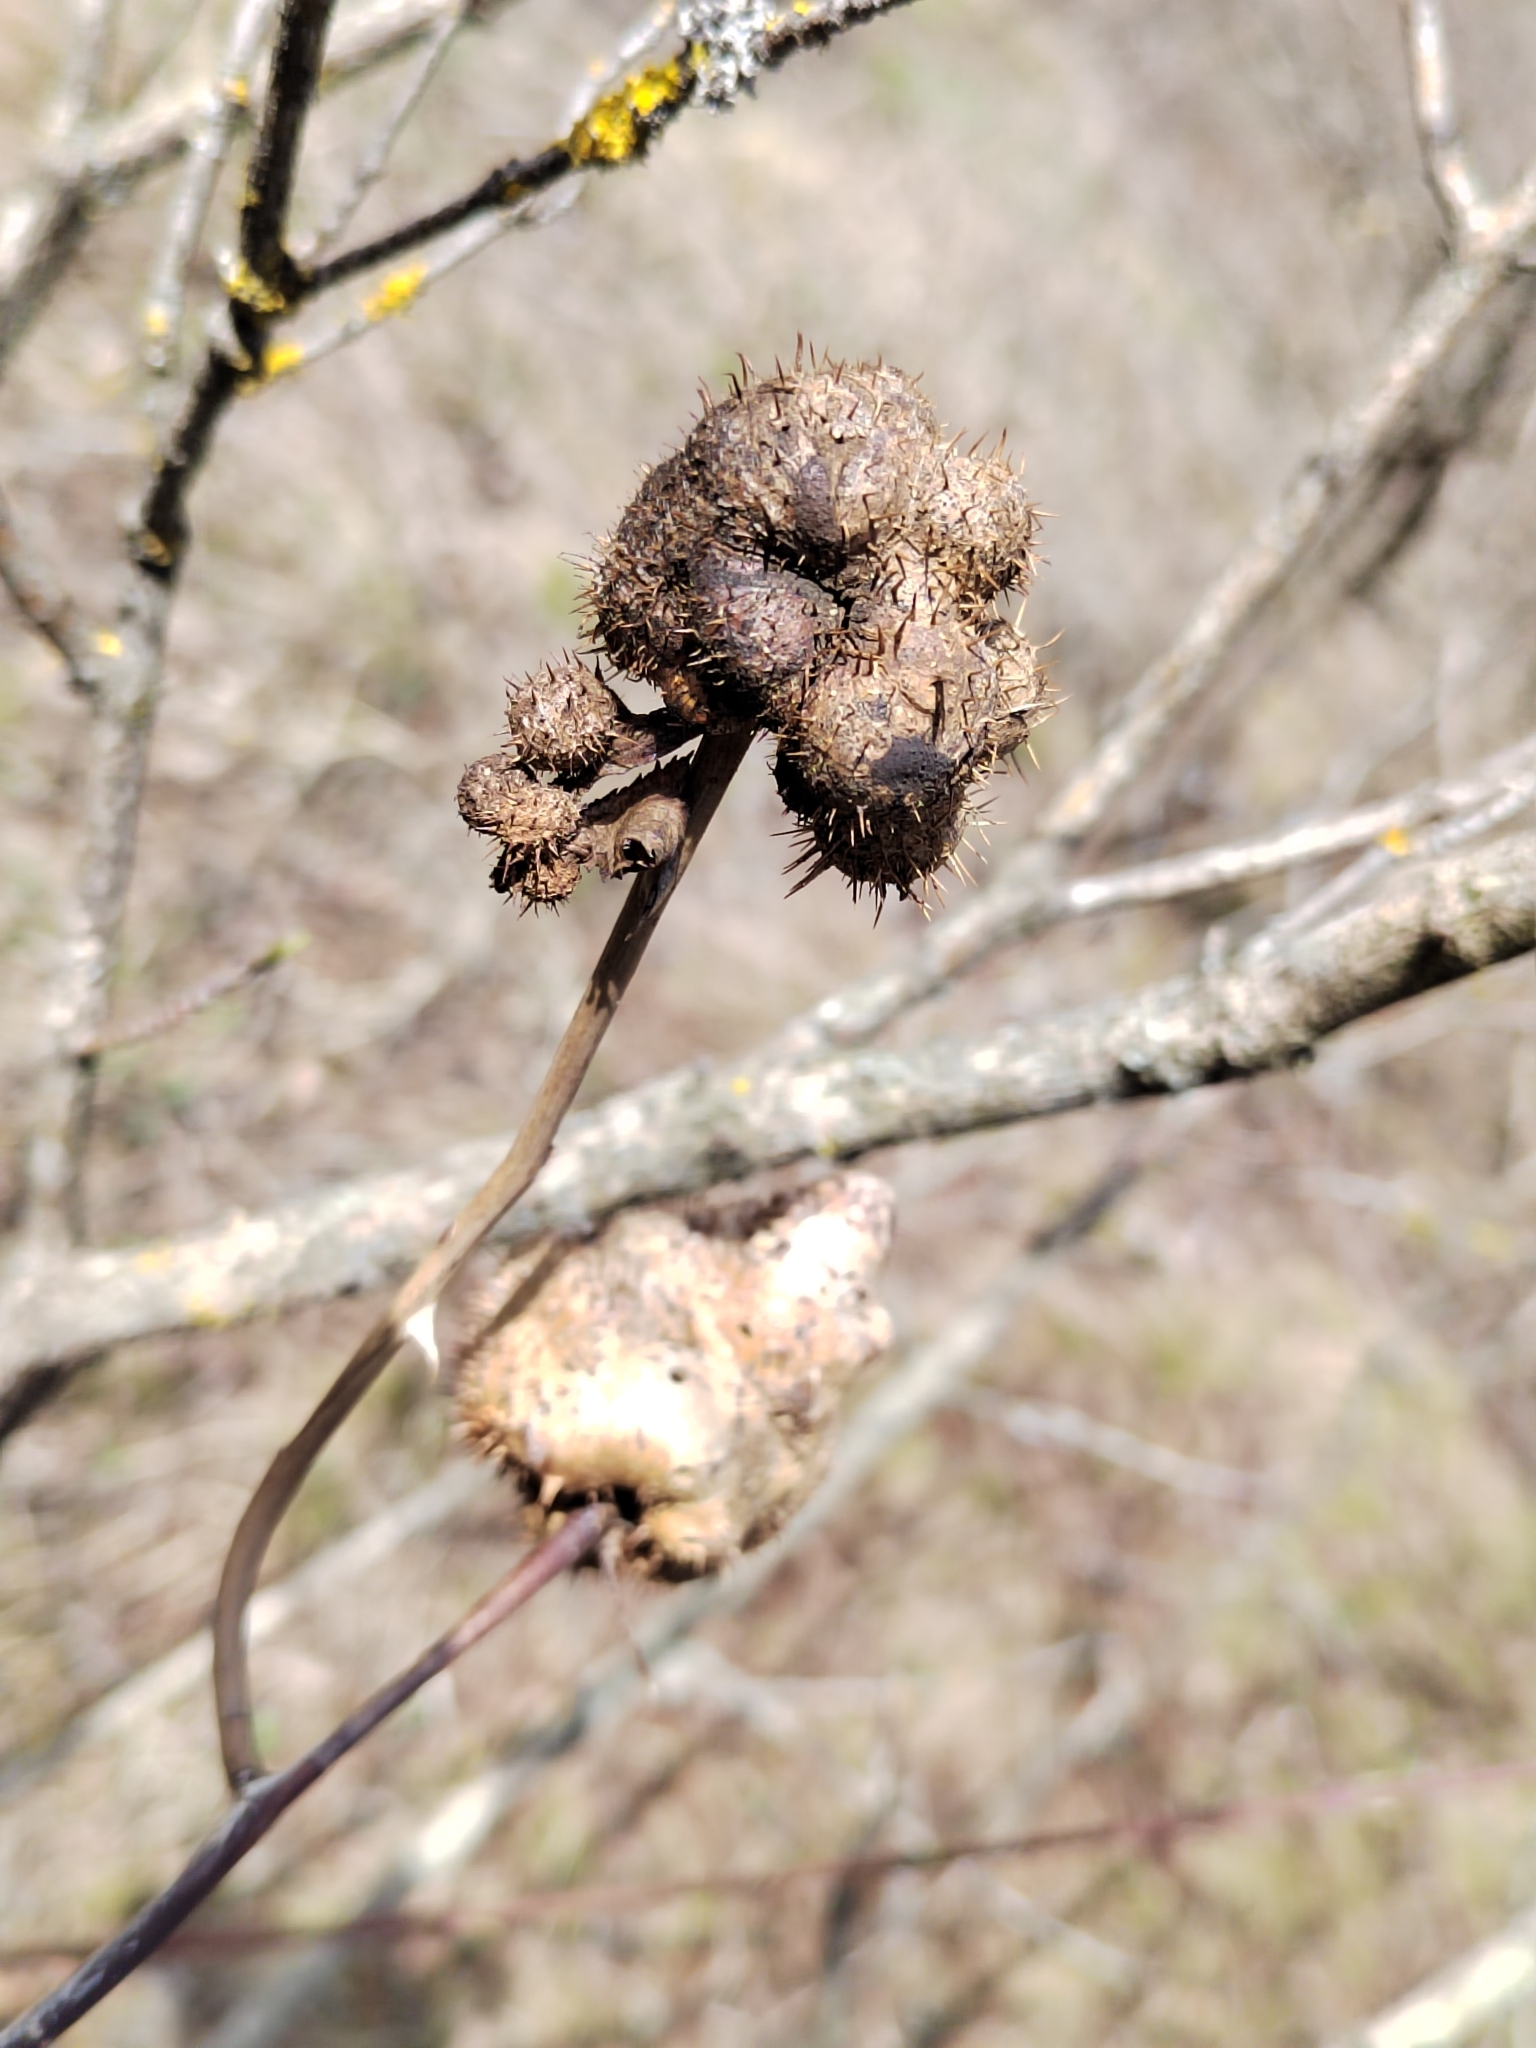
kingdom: Animalia
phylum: Arthropoda
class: Insecta
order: Hymenoptera
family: Cynipidae
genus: Diplolepis
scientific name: Diplolepis mayri
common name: Gall wasp
